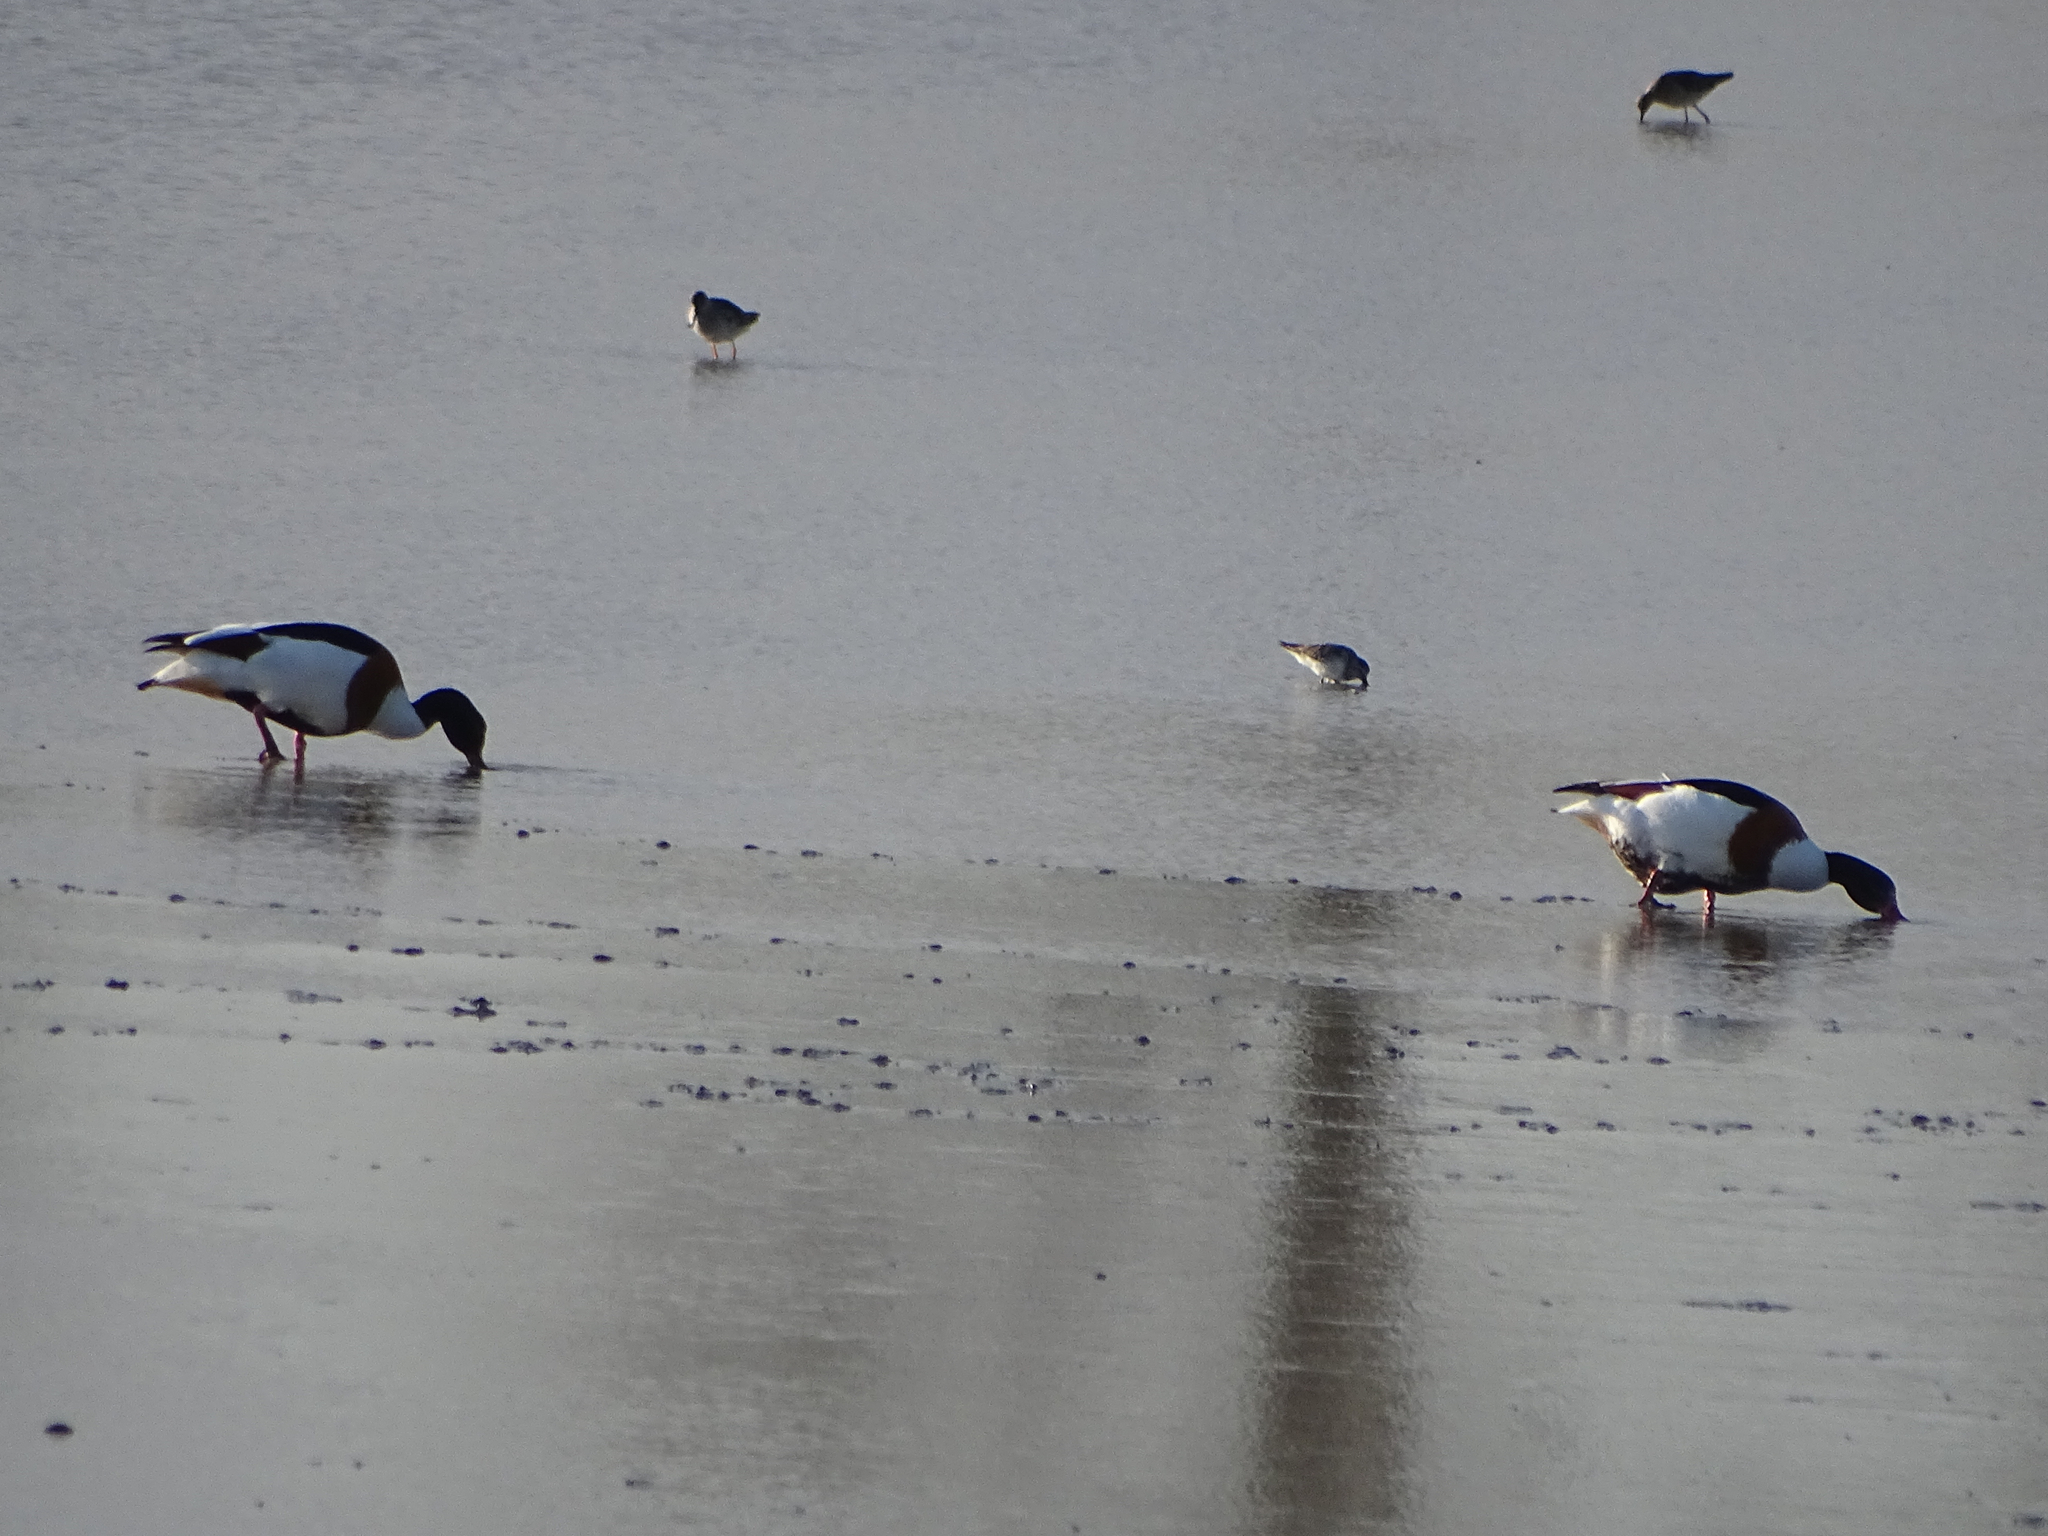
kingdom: Animalia
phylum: Chordata
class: Aves
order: Anseriformes
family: Anatidae
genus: Tadorna
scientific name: Tadorna tadorna
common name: Common shelduck
